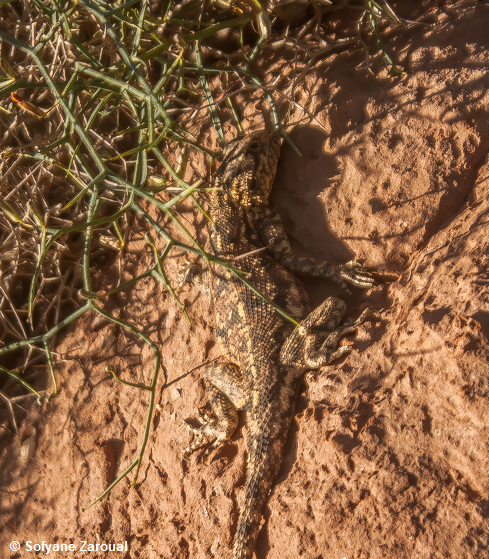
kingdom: Animalia
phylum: Chordata
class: Squamata
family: Agamidae
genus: Agama
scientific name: Agama impalearis
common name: Bibron's agama
